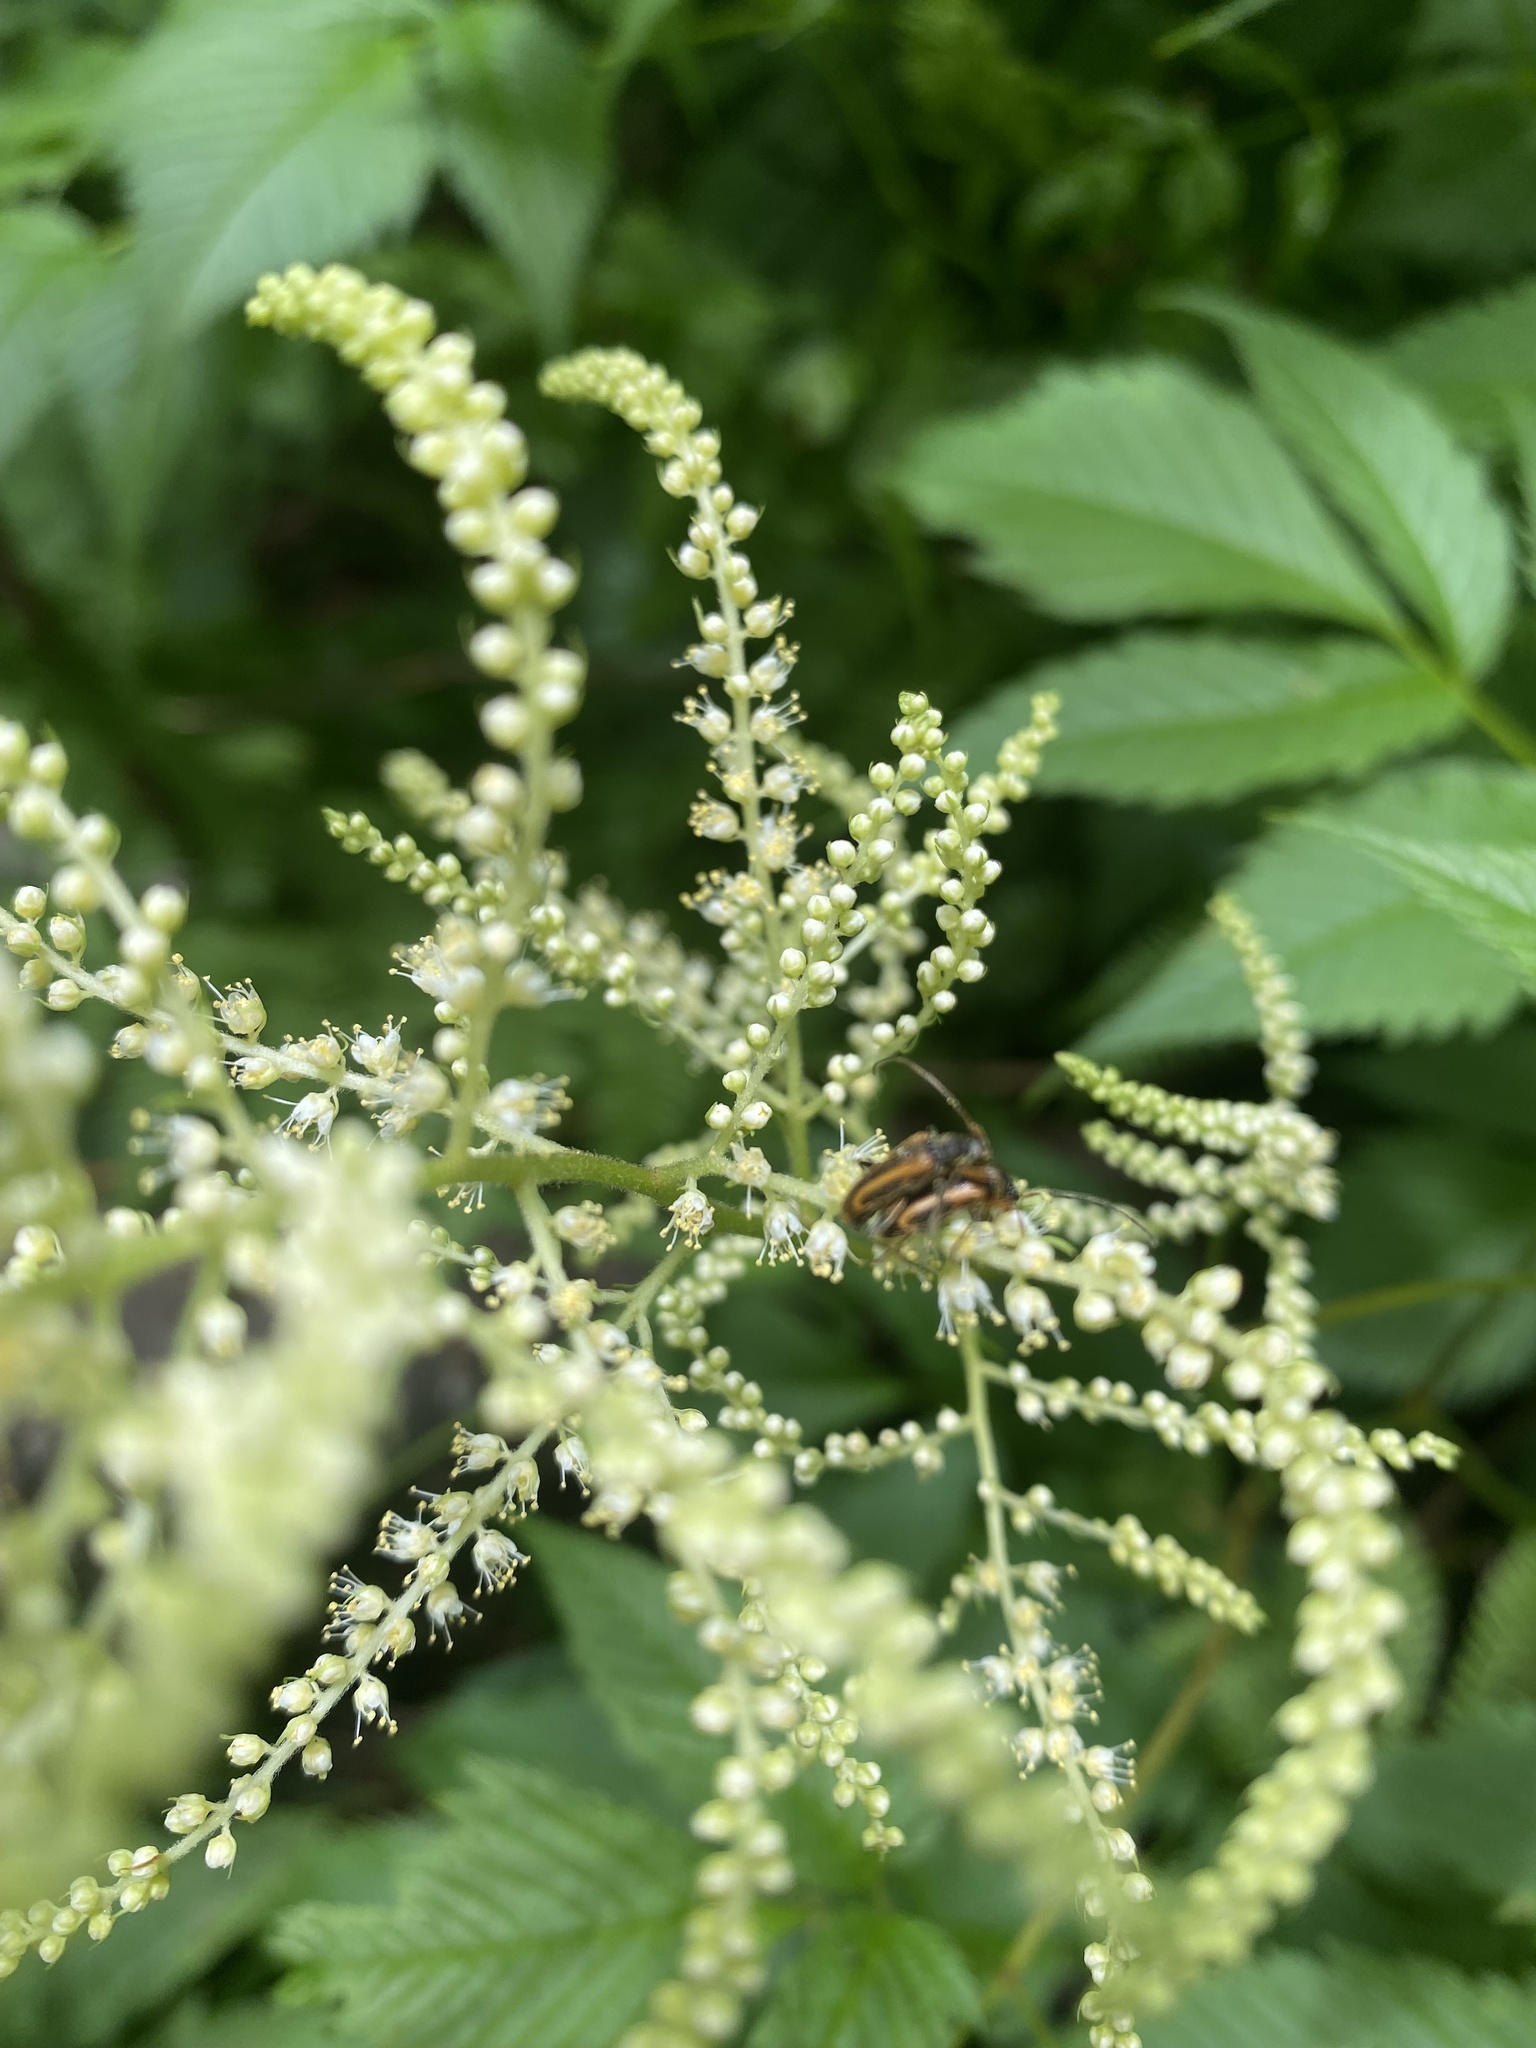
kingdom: Plantae
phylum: Tracheophyta
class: Magnoliopsida
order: Rosales
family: Rosaceae
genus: Aruncus
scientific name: Aruncus dioicus
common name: Buck's-beard
